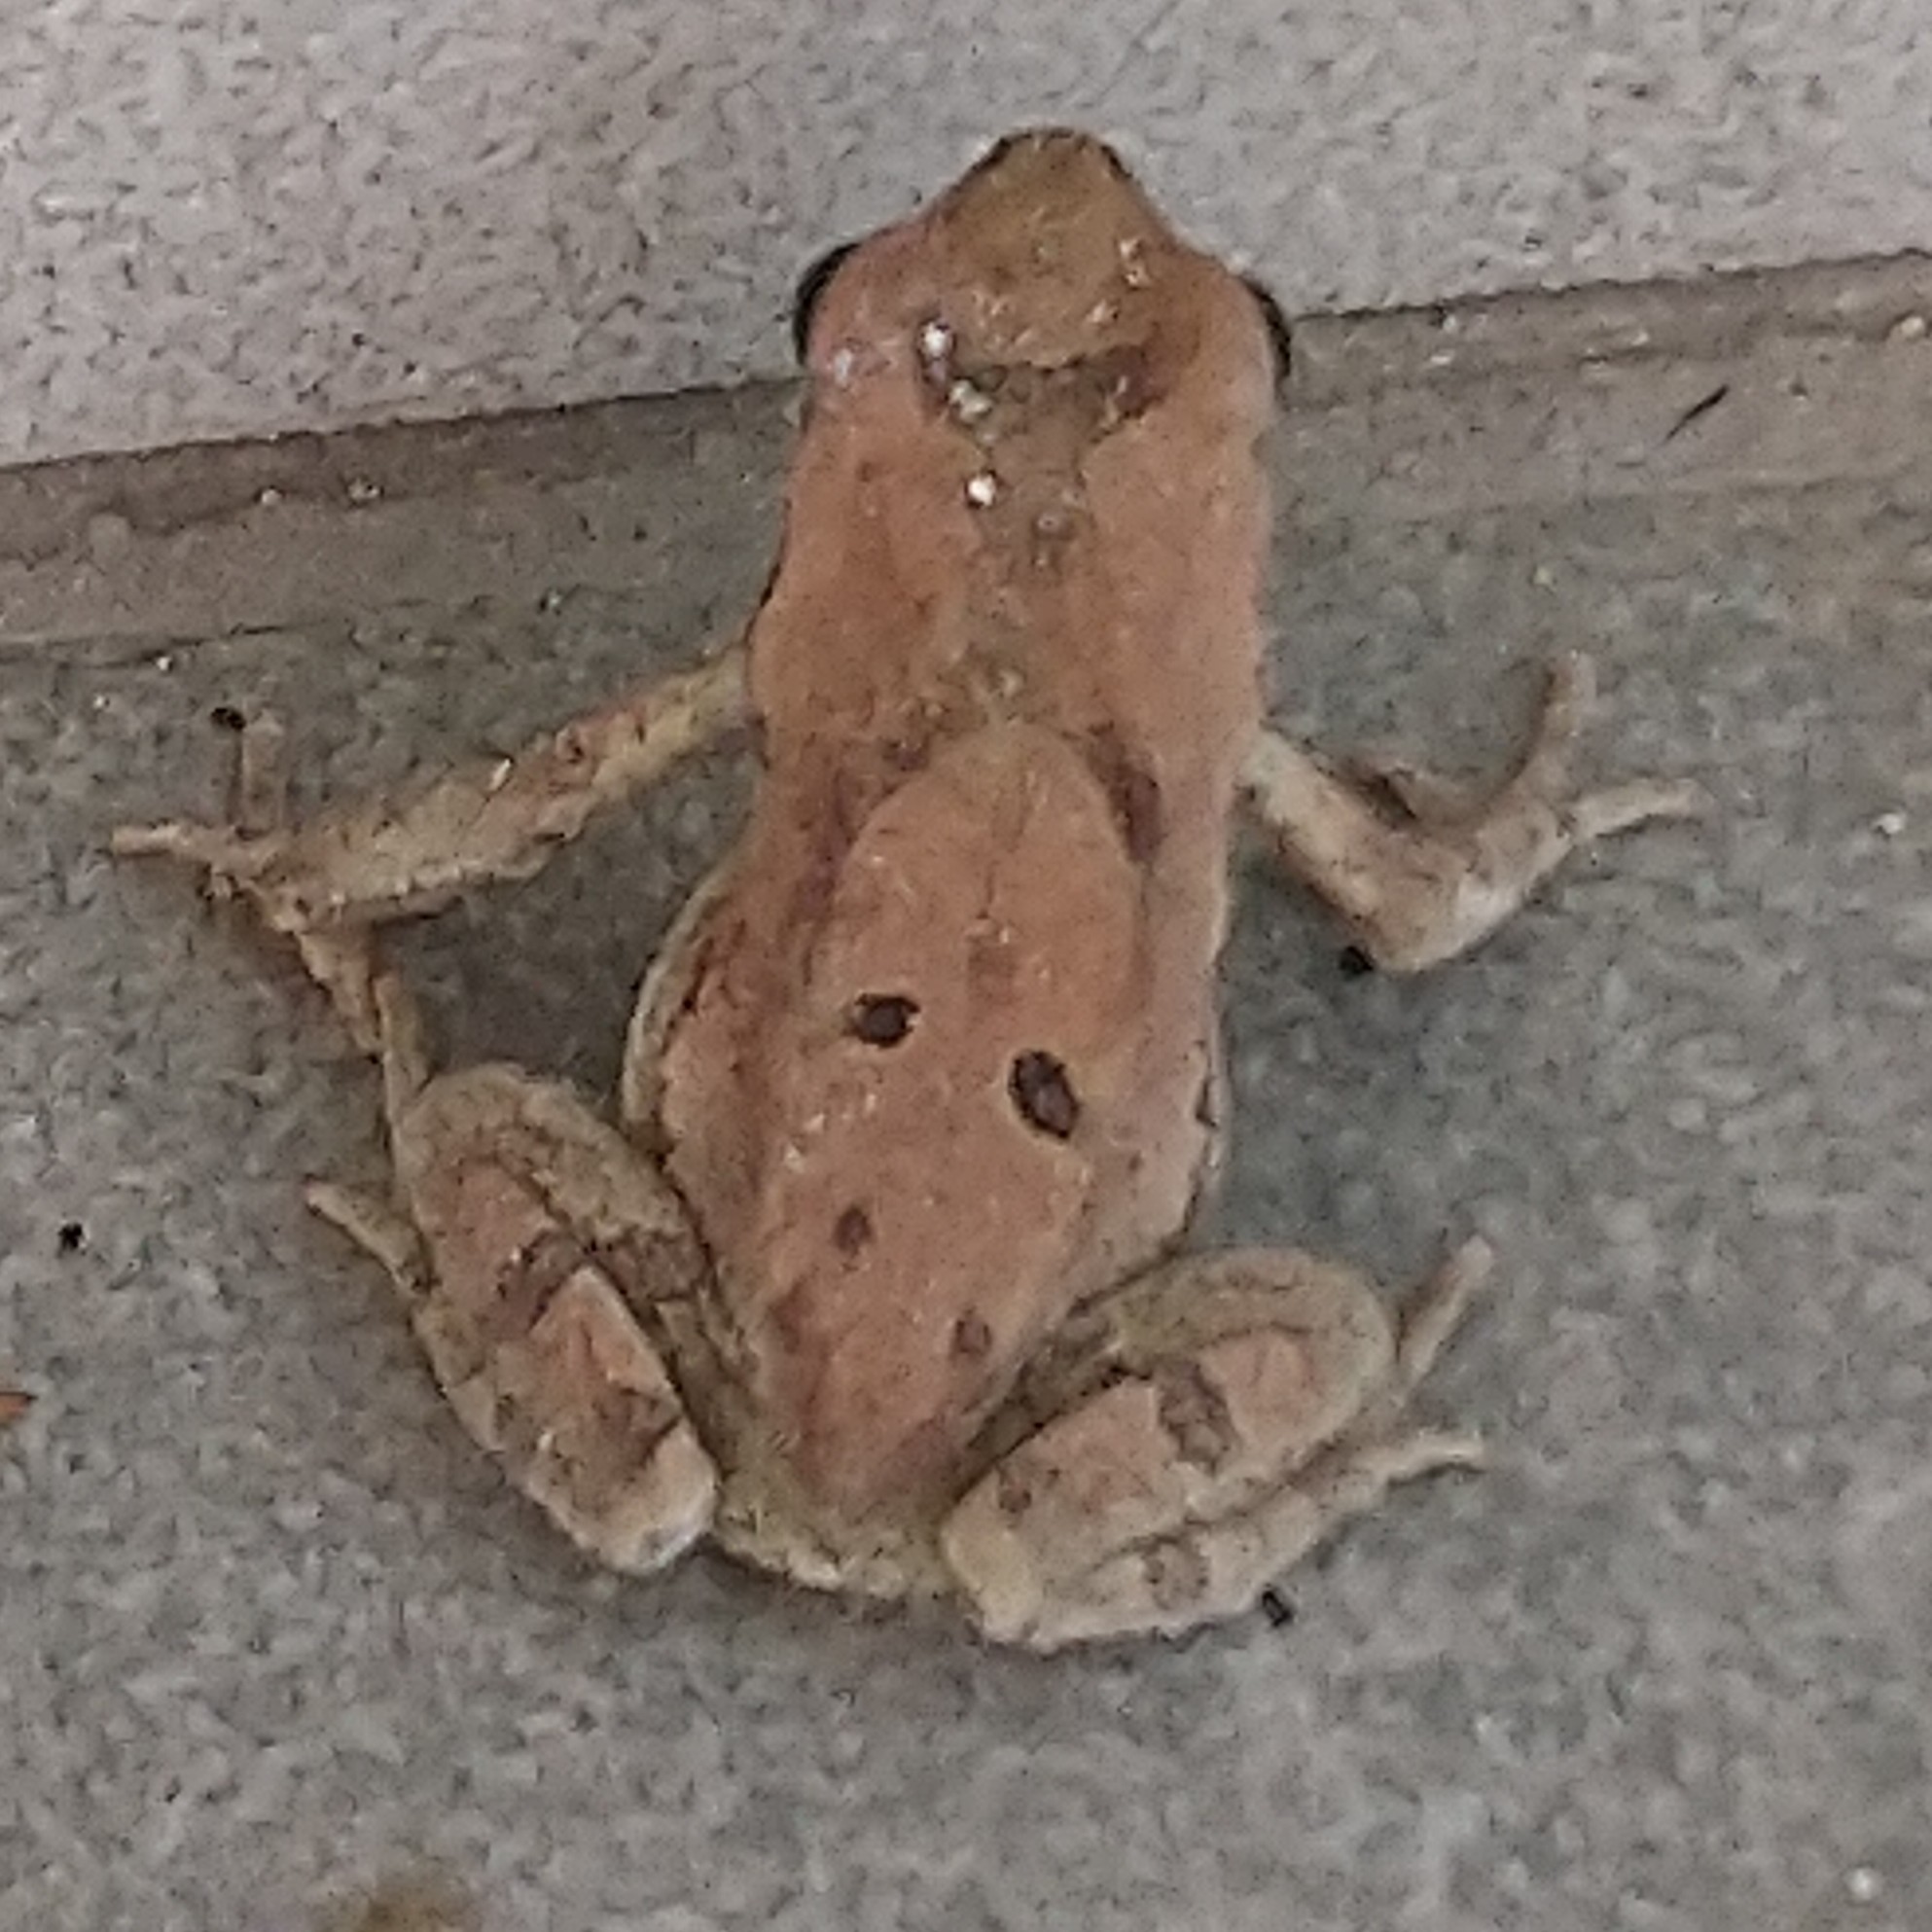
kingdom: Animalia
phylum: Chordata
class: Amphibia
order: Anura
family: Bufonidae
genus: Schismaderma
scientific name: Schismaderma carens
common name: African split-skin toad
